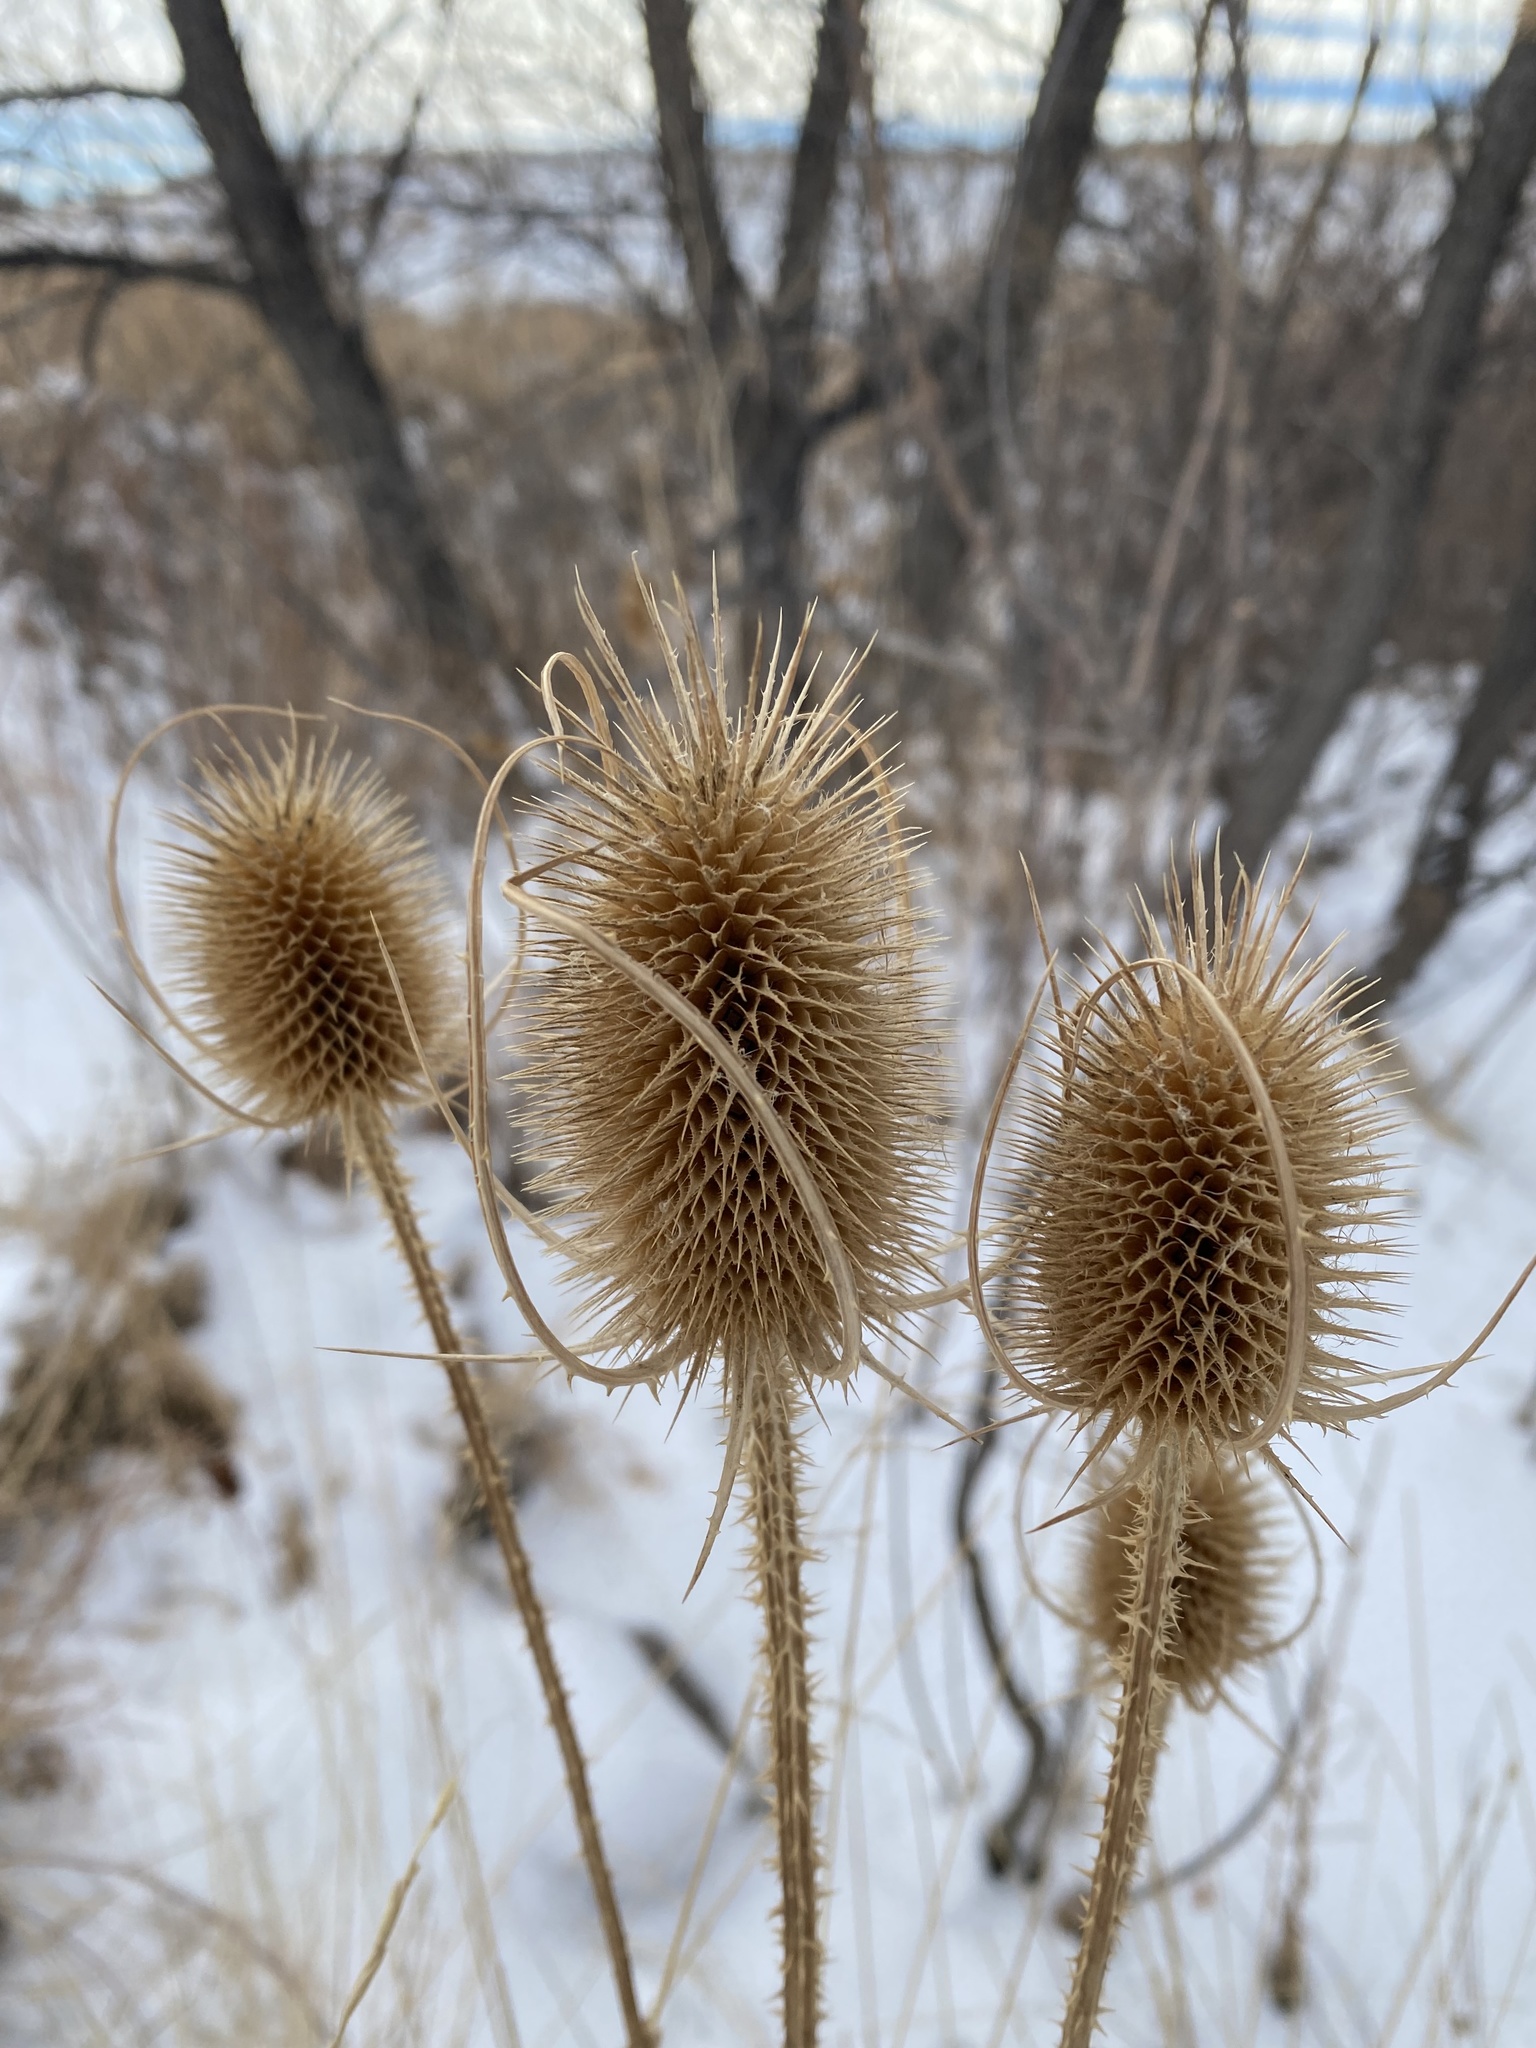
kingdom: Plantae
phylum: Tracheophyta
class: Magnoliopsida
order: Dipsacales
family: Caprifoliaceae
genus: Dipsacus
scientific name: Dipsacus fullonum
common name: Teasel
